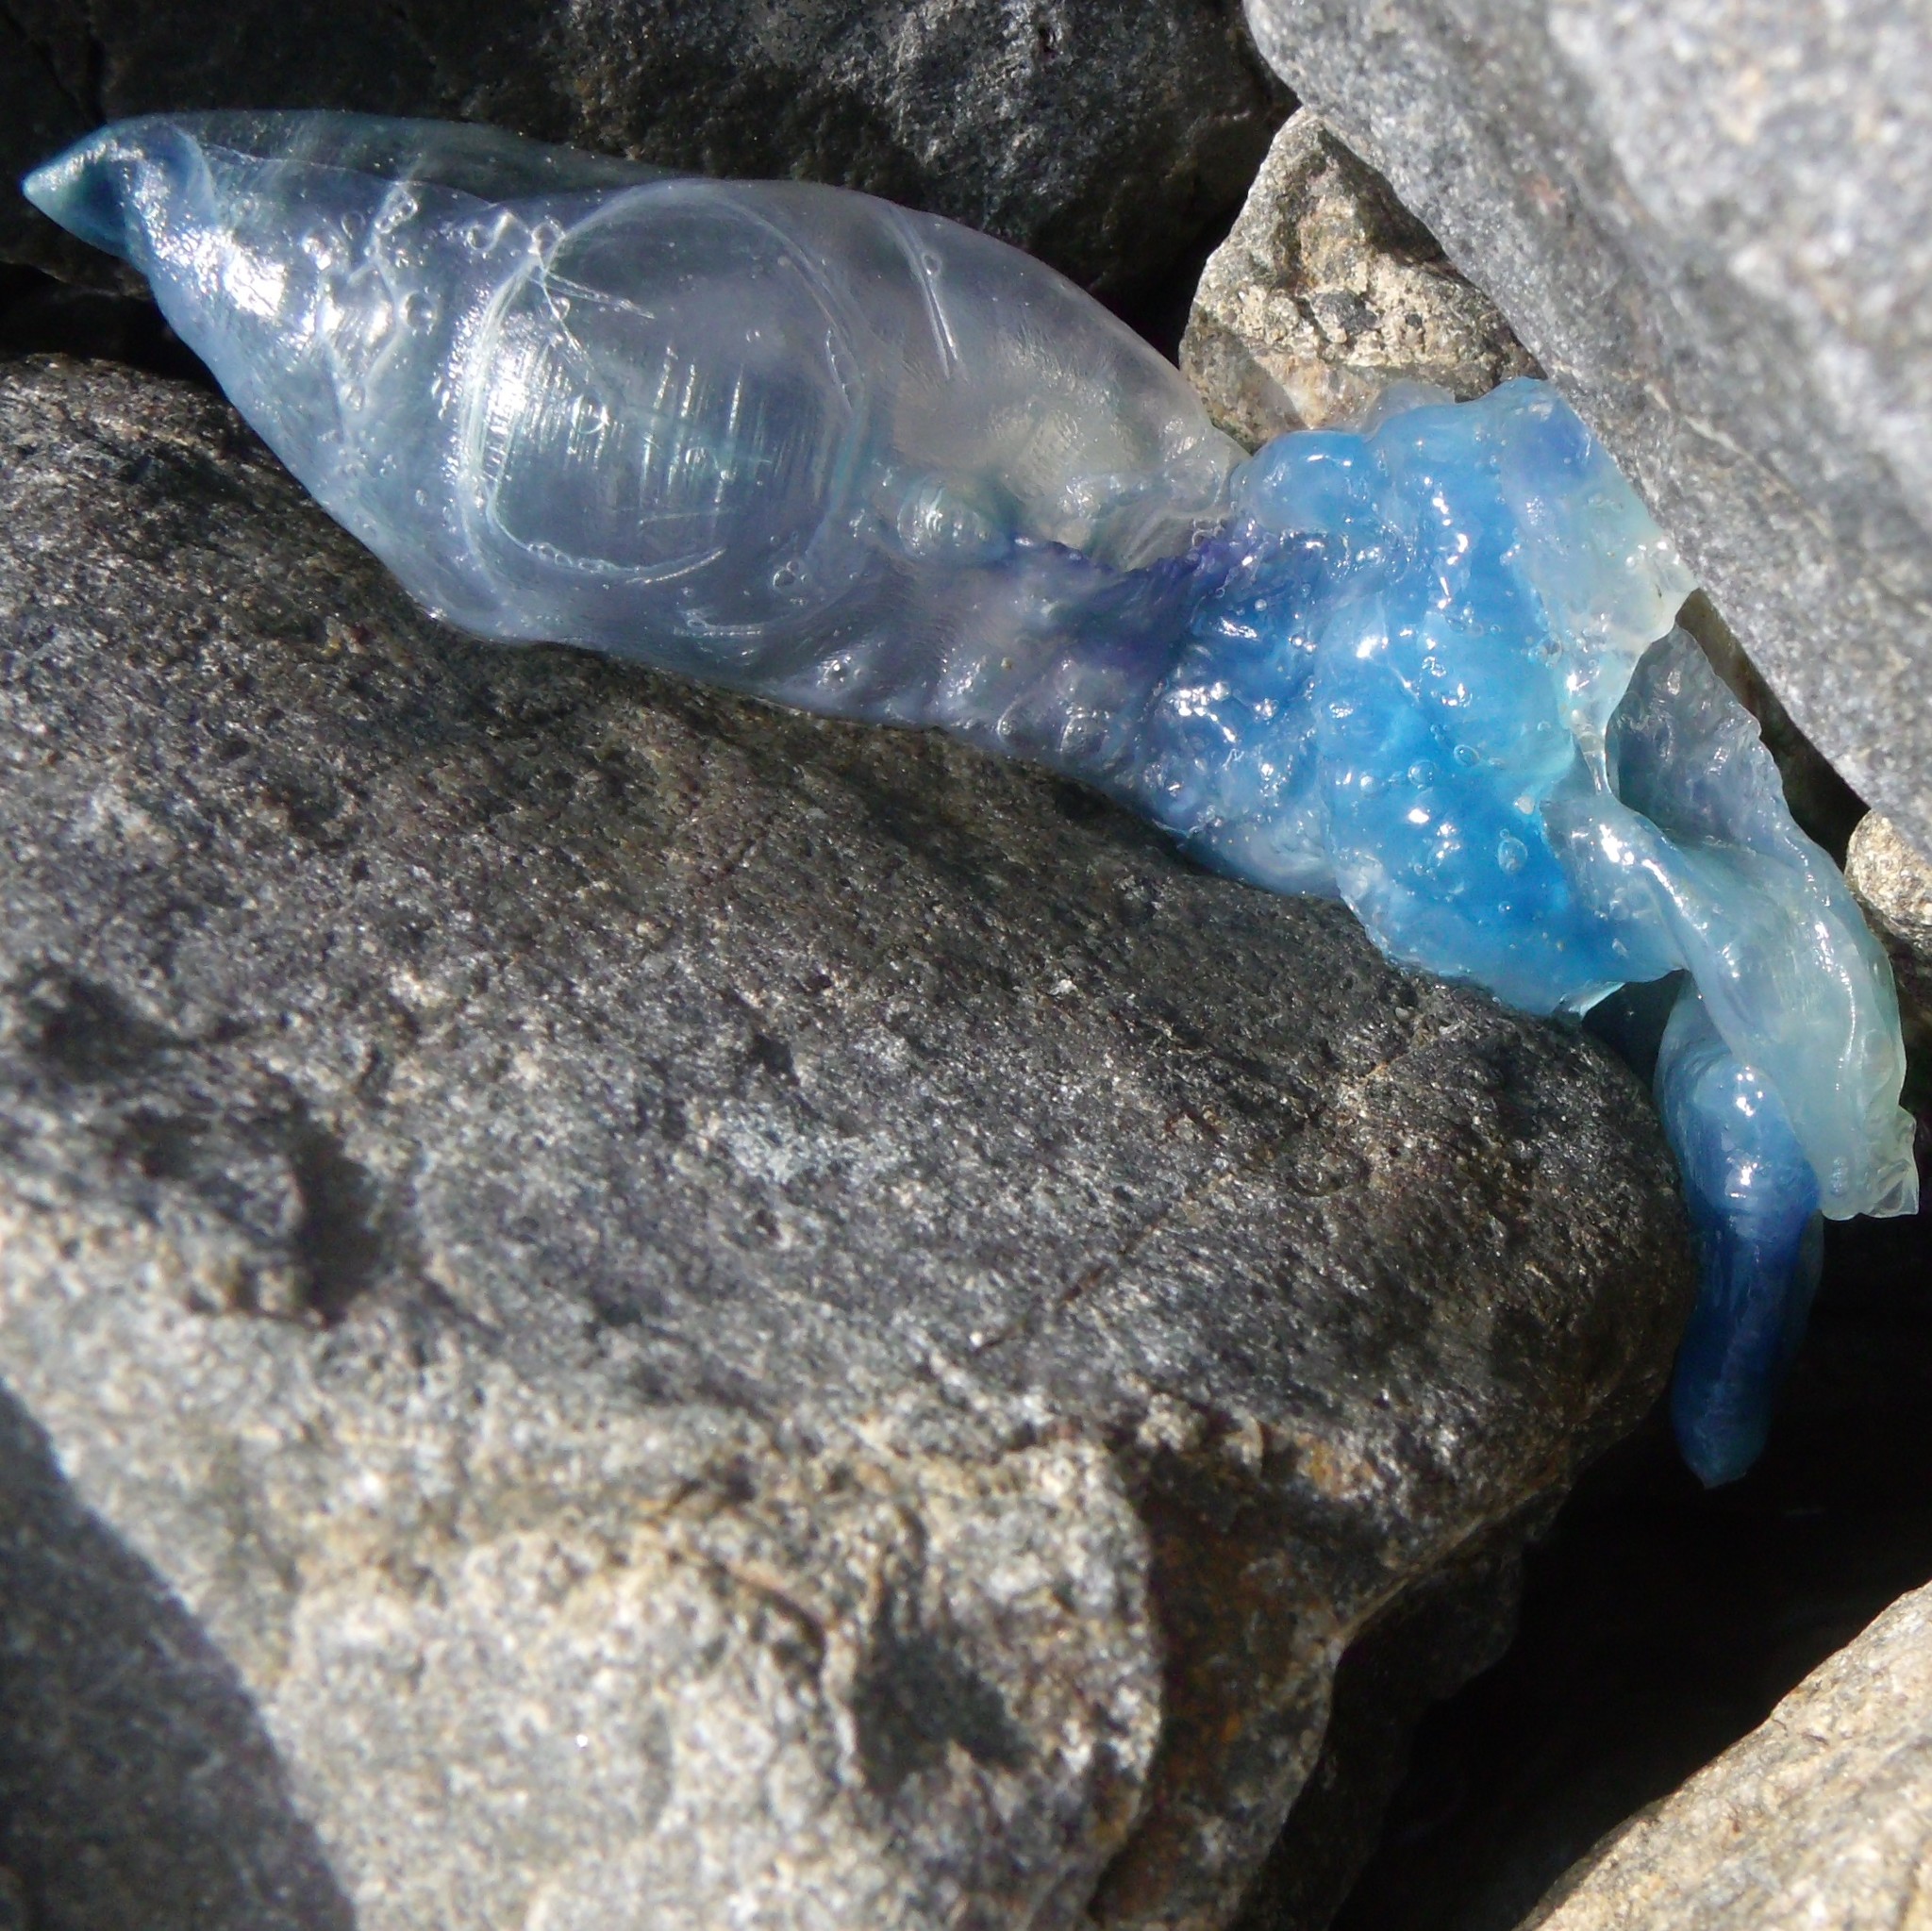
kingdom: Animalia
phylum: Cnidaria
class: Hydrozoa
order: Siphonophorae
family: Physaliidae
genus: Physalia
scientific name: Physalia physalis
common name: Portuguese man-of-war
